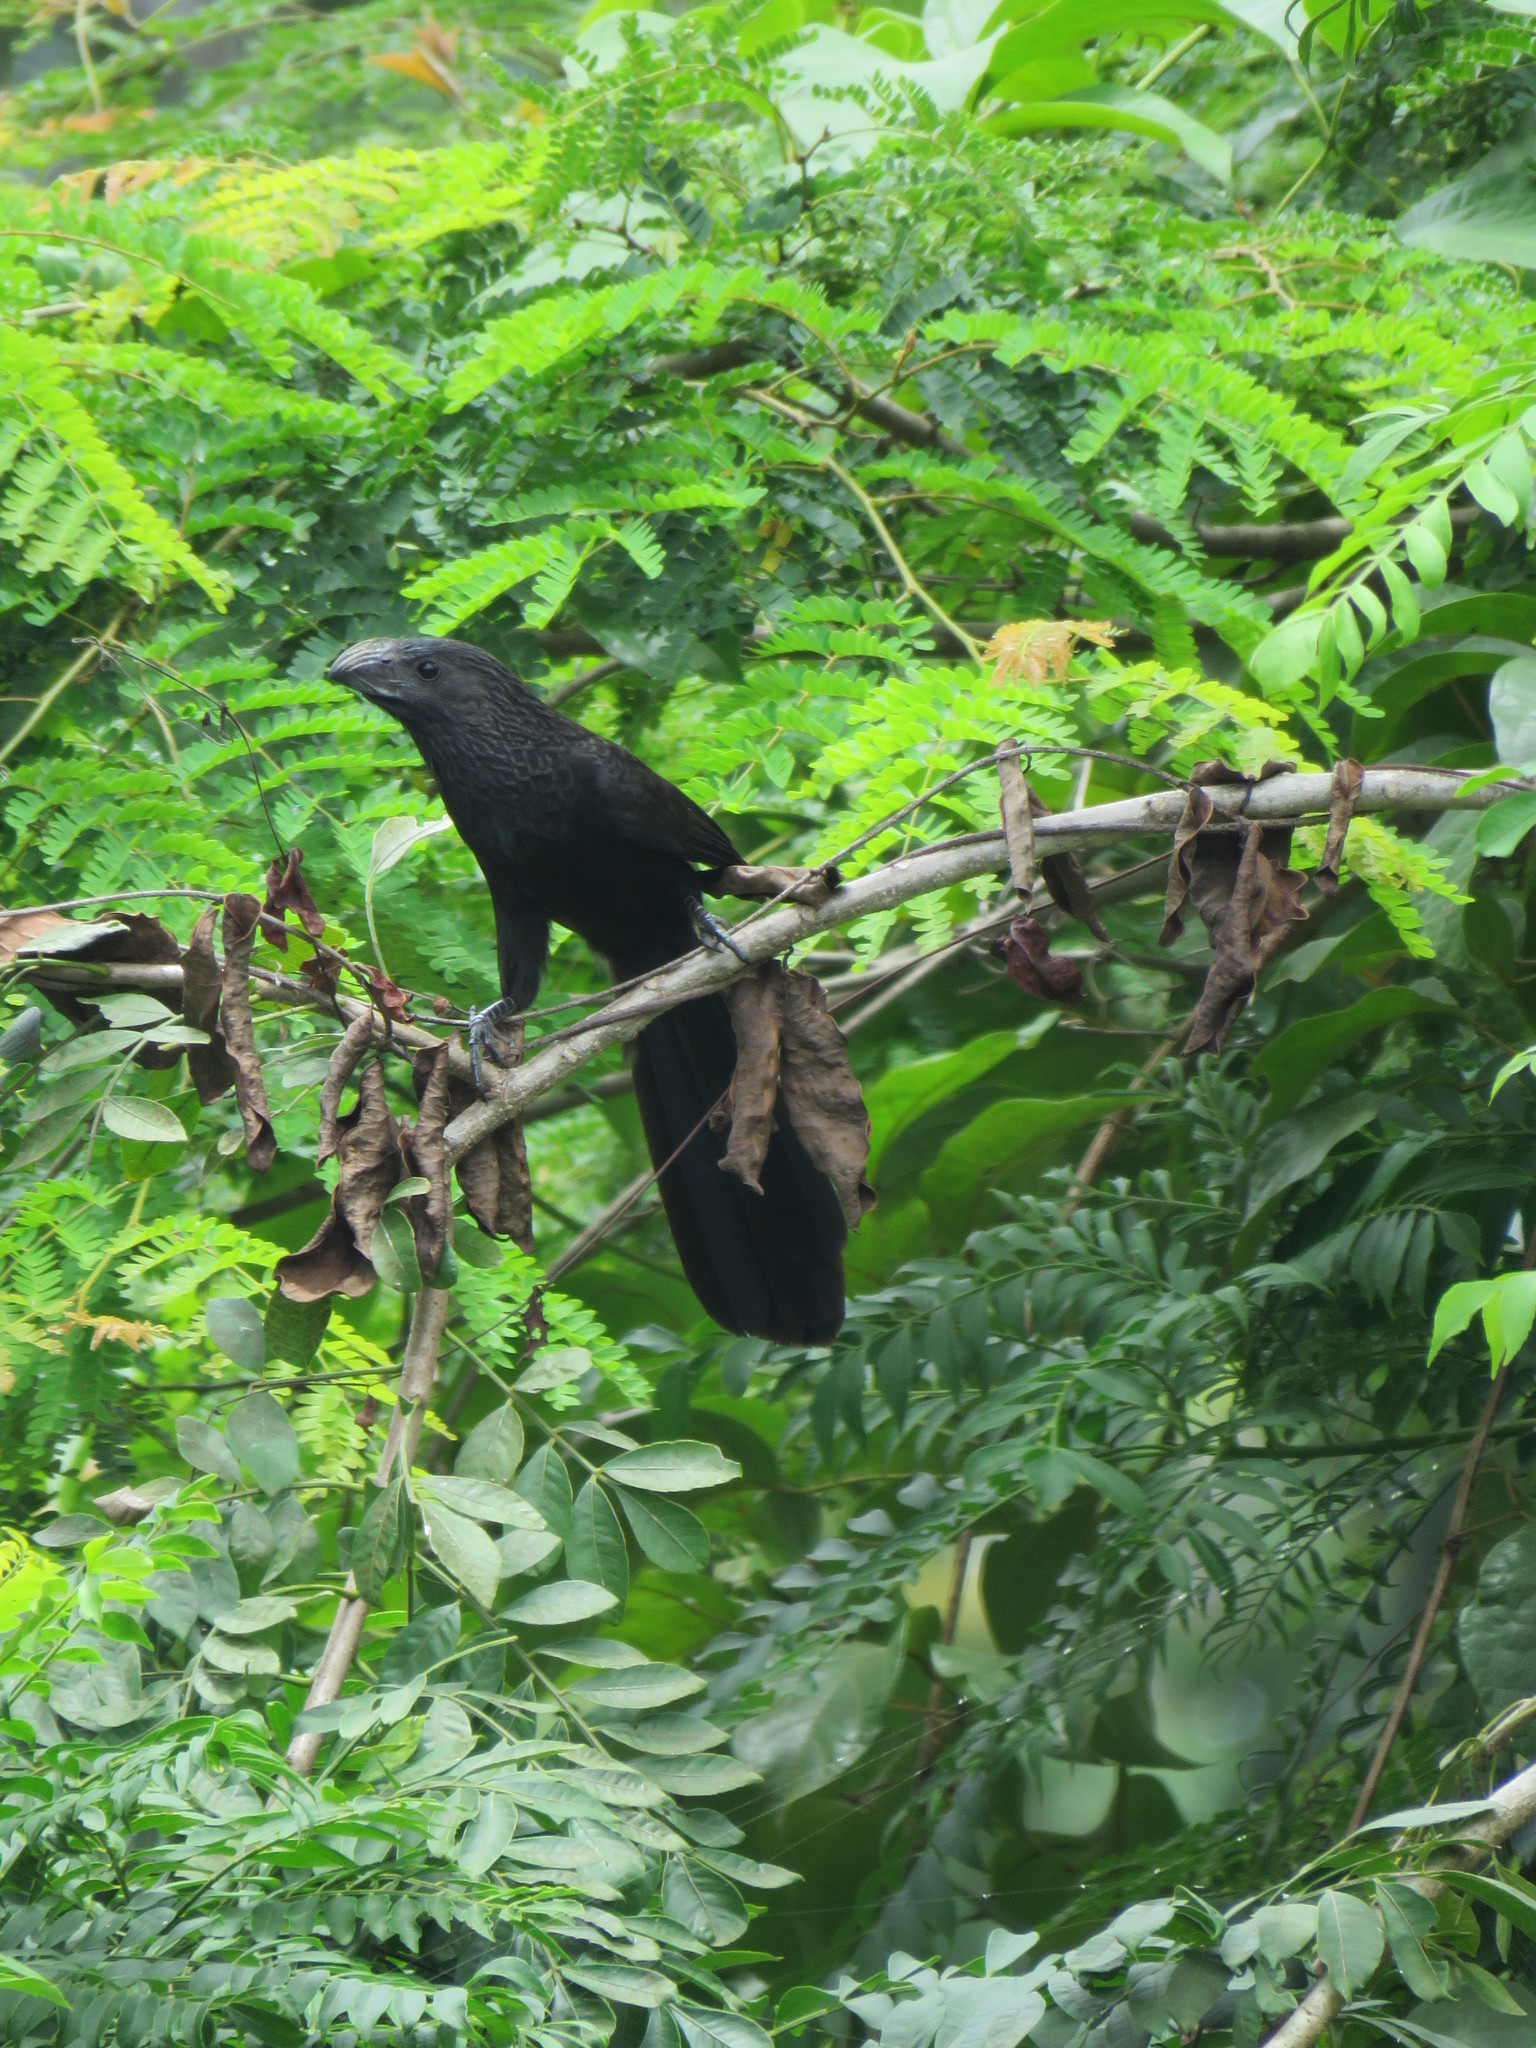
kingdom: Animalia
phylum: Chordata
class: Aves
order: Cuculiformes
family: Cuculidae
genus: Crotophaga
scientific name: Crotophaga sulcirostris
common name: Groove-billed ani
